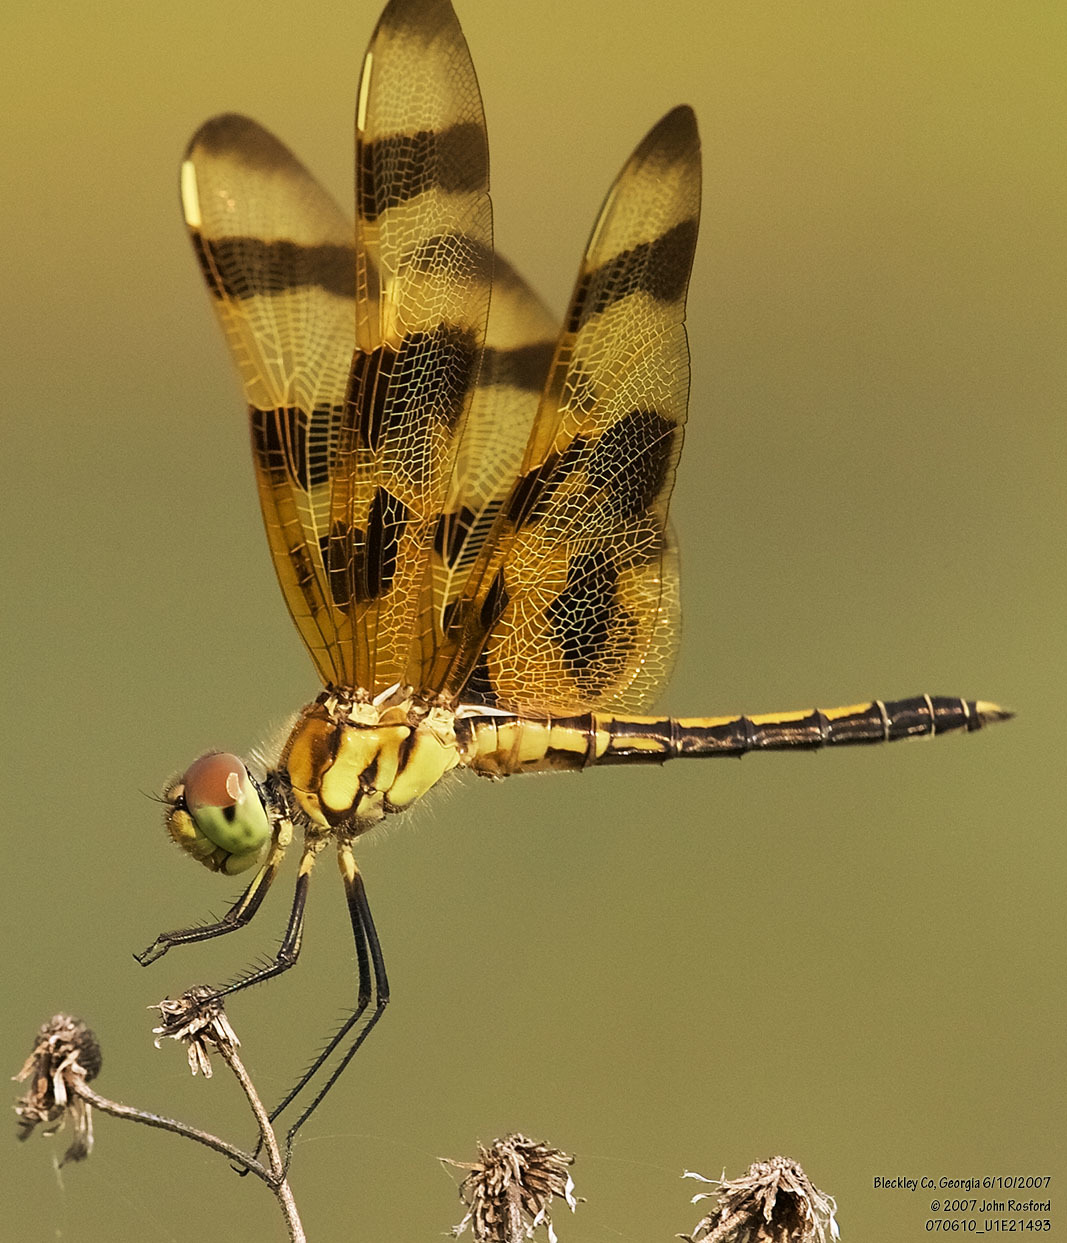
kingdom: Animalia
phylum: Arthropoda
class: Insecta
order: Odonata
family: Libellulidae
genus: Celithemis
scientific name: Celithemis eponina
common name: Halloween pennant
